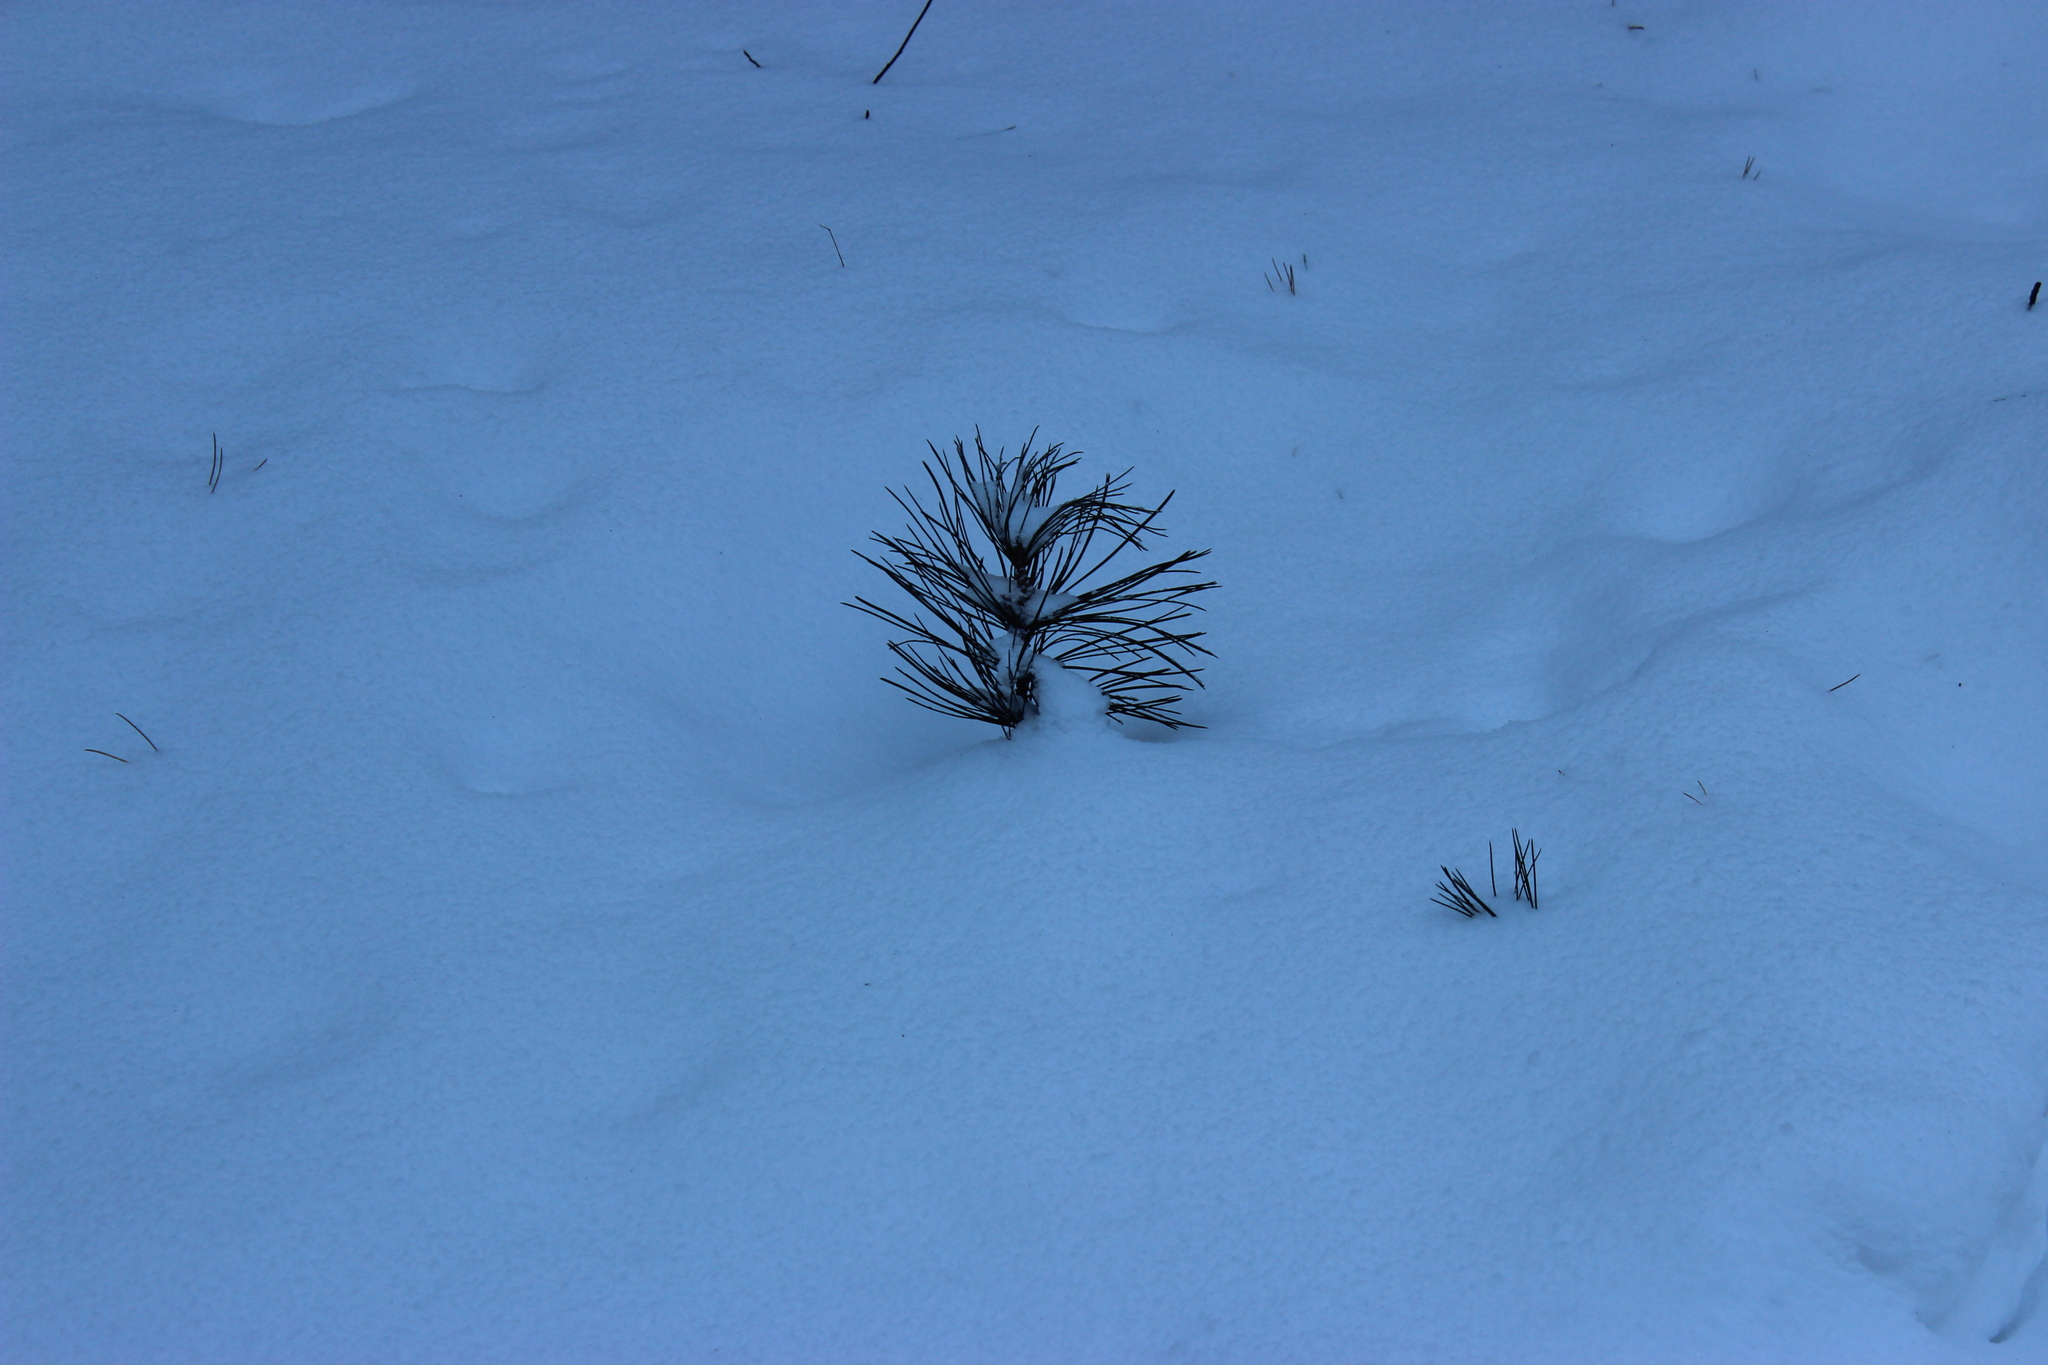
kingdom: Plantae
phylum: Tracheophyta
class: Pinopsida
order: Pinales
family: Pinaceae
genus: Pinus
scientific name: Pinus sibirica
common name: Siberian pine
